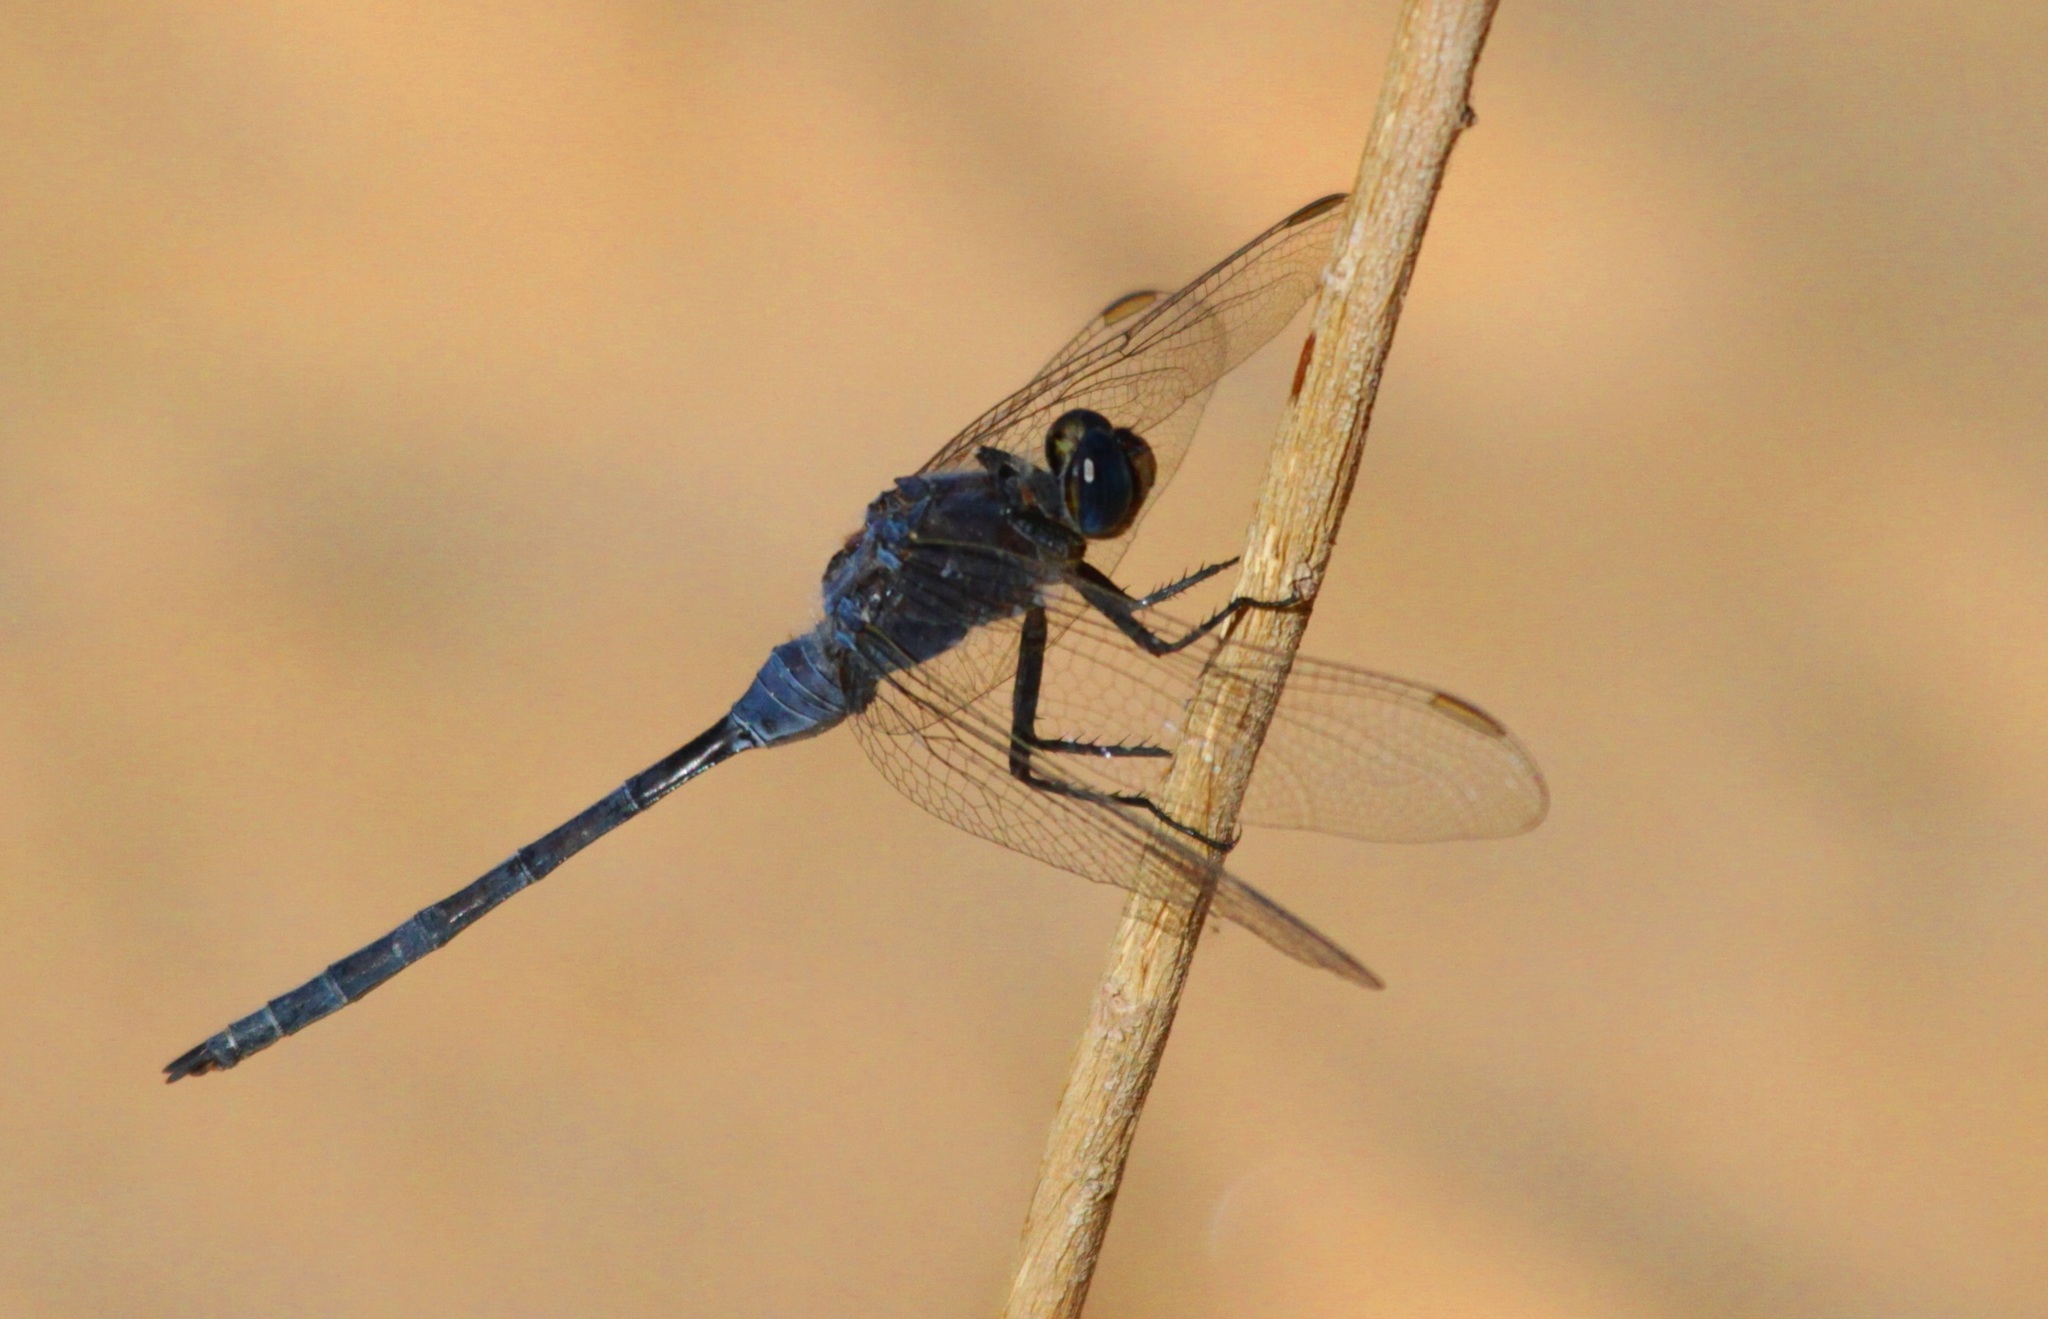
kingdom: Animalia
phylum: Arthropoda
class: Insecta
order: Odonata
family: Libellulidae
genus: Orthetrum
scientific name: Orthetrum trinacria
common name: Long skimmer
